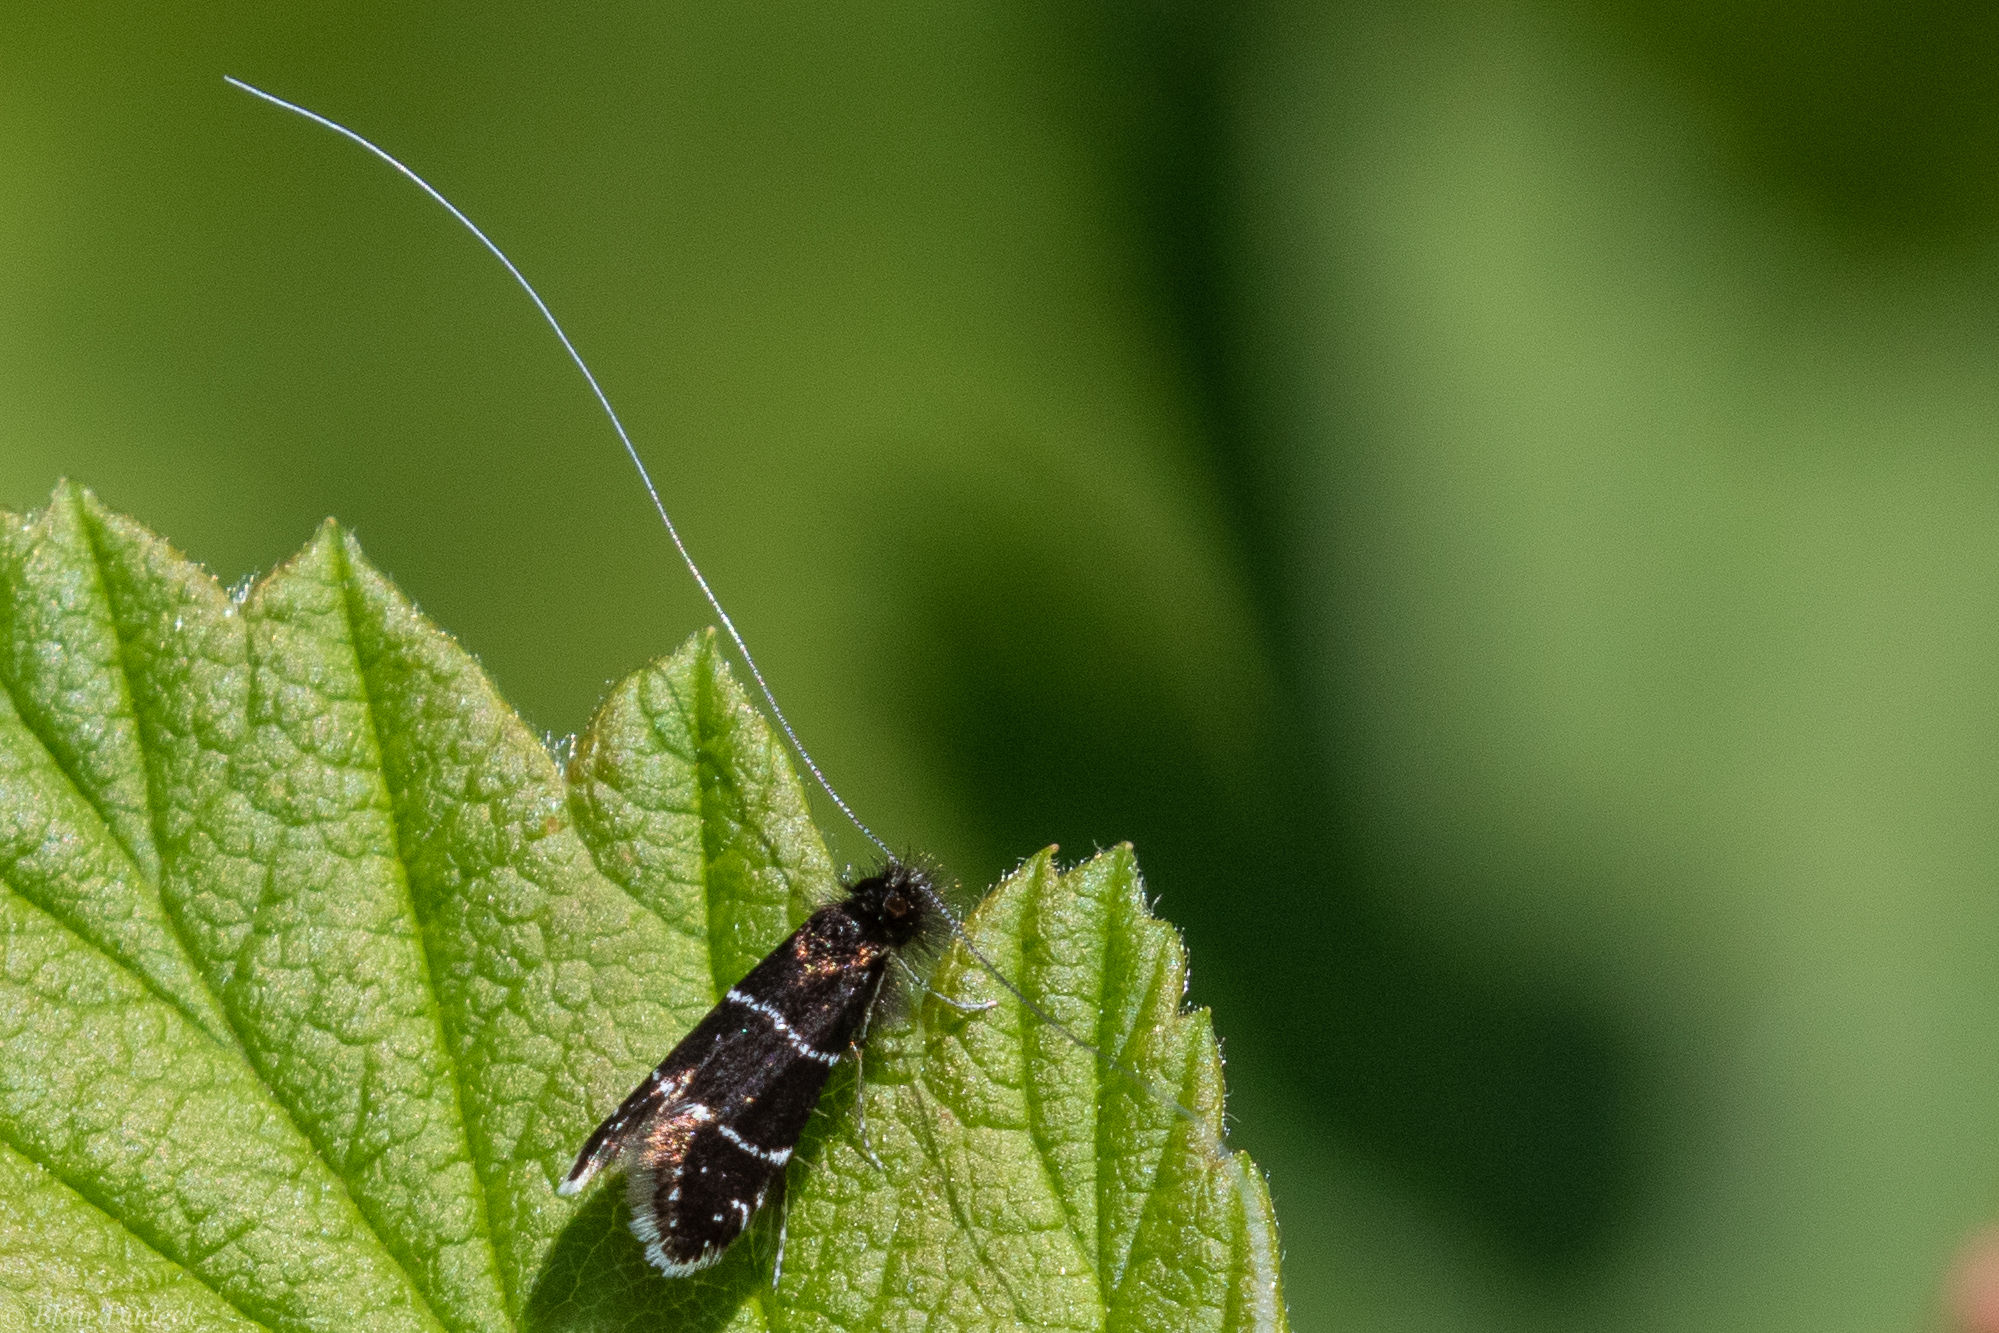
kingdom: Animalia
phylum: Arthropoda
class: Insecta
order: Lepidoptera
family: Adelidae
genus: Adela
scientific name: Adela septentrionella
